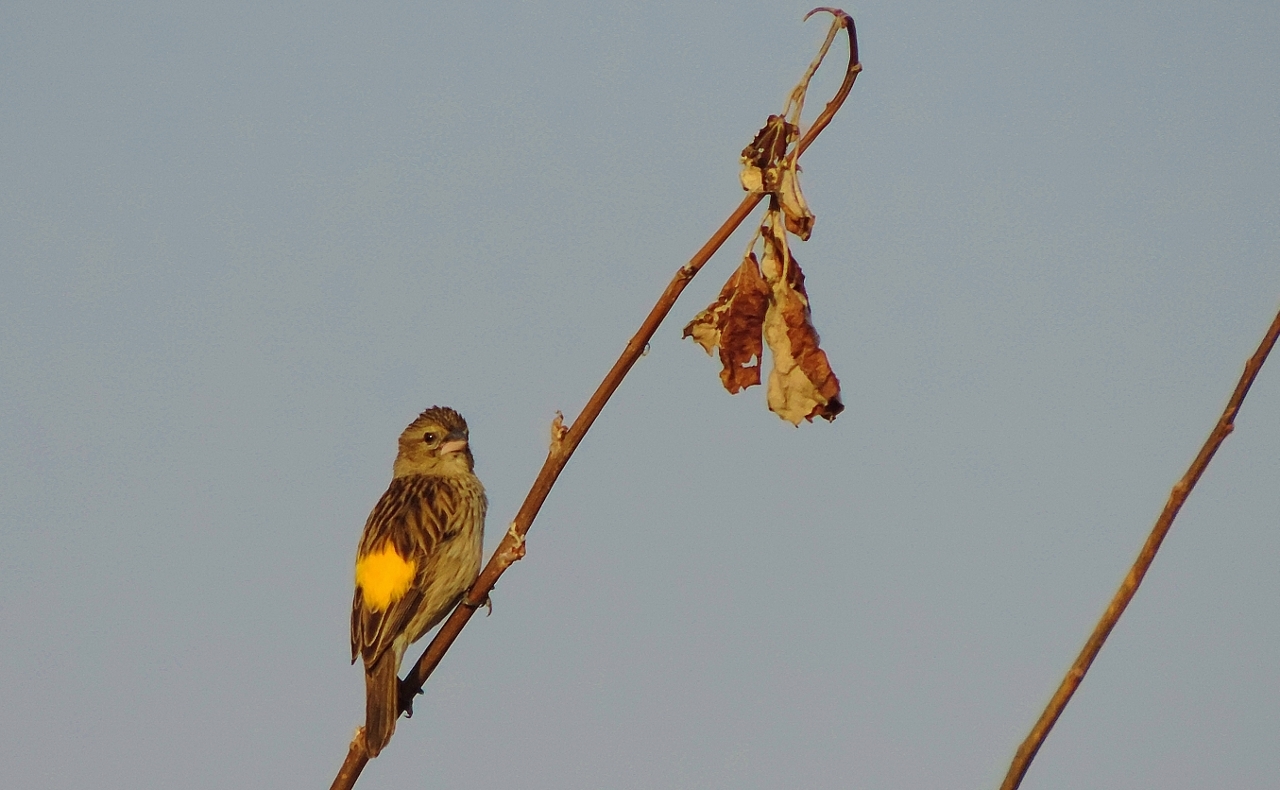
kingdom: Animalia
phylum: Chordata
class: Aves
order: Passeriformes
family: Ploceidae
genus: Euplectes
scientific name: Euplectes capensis
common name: Yellow bishop
